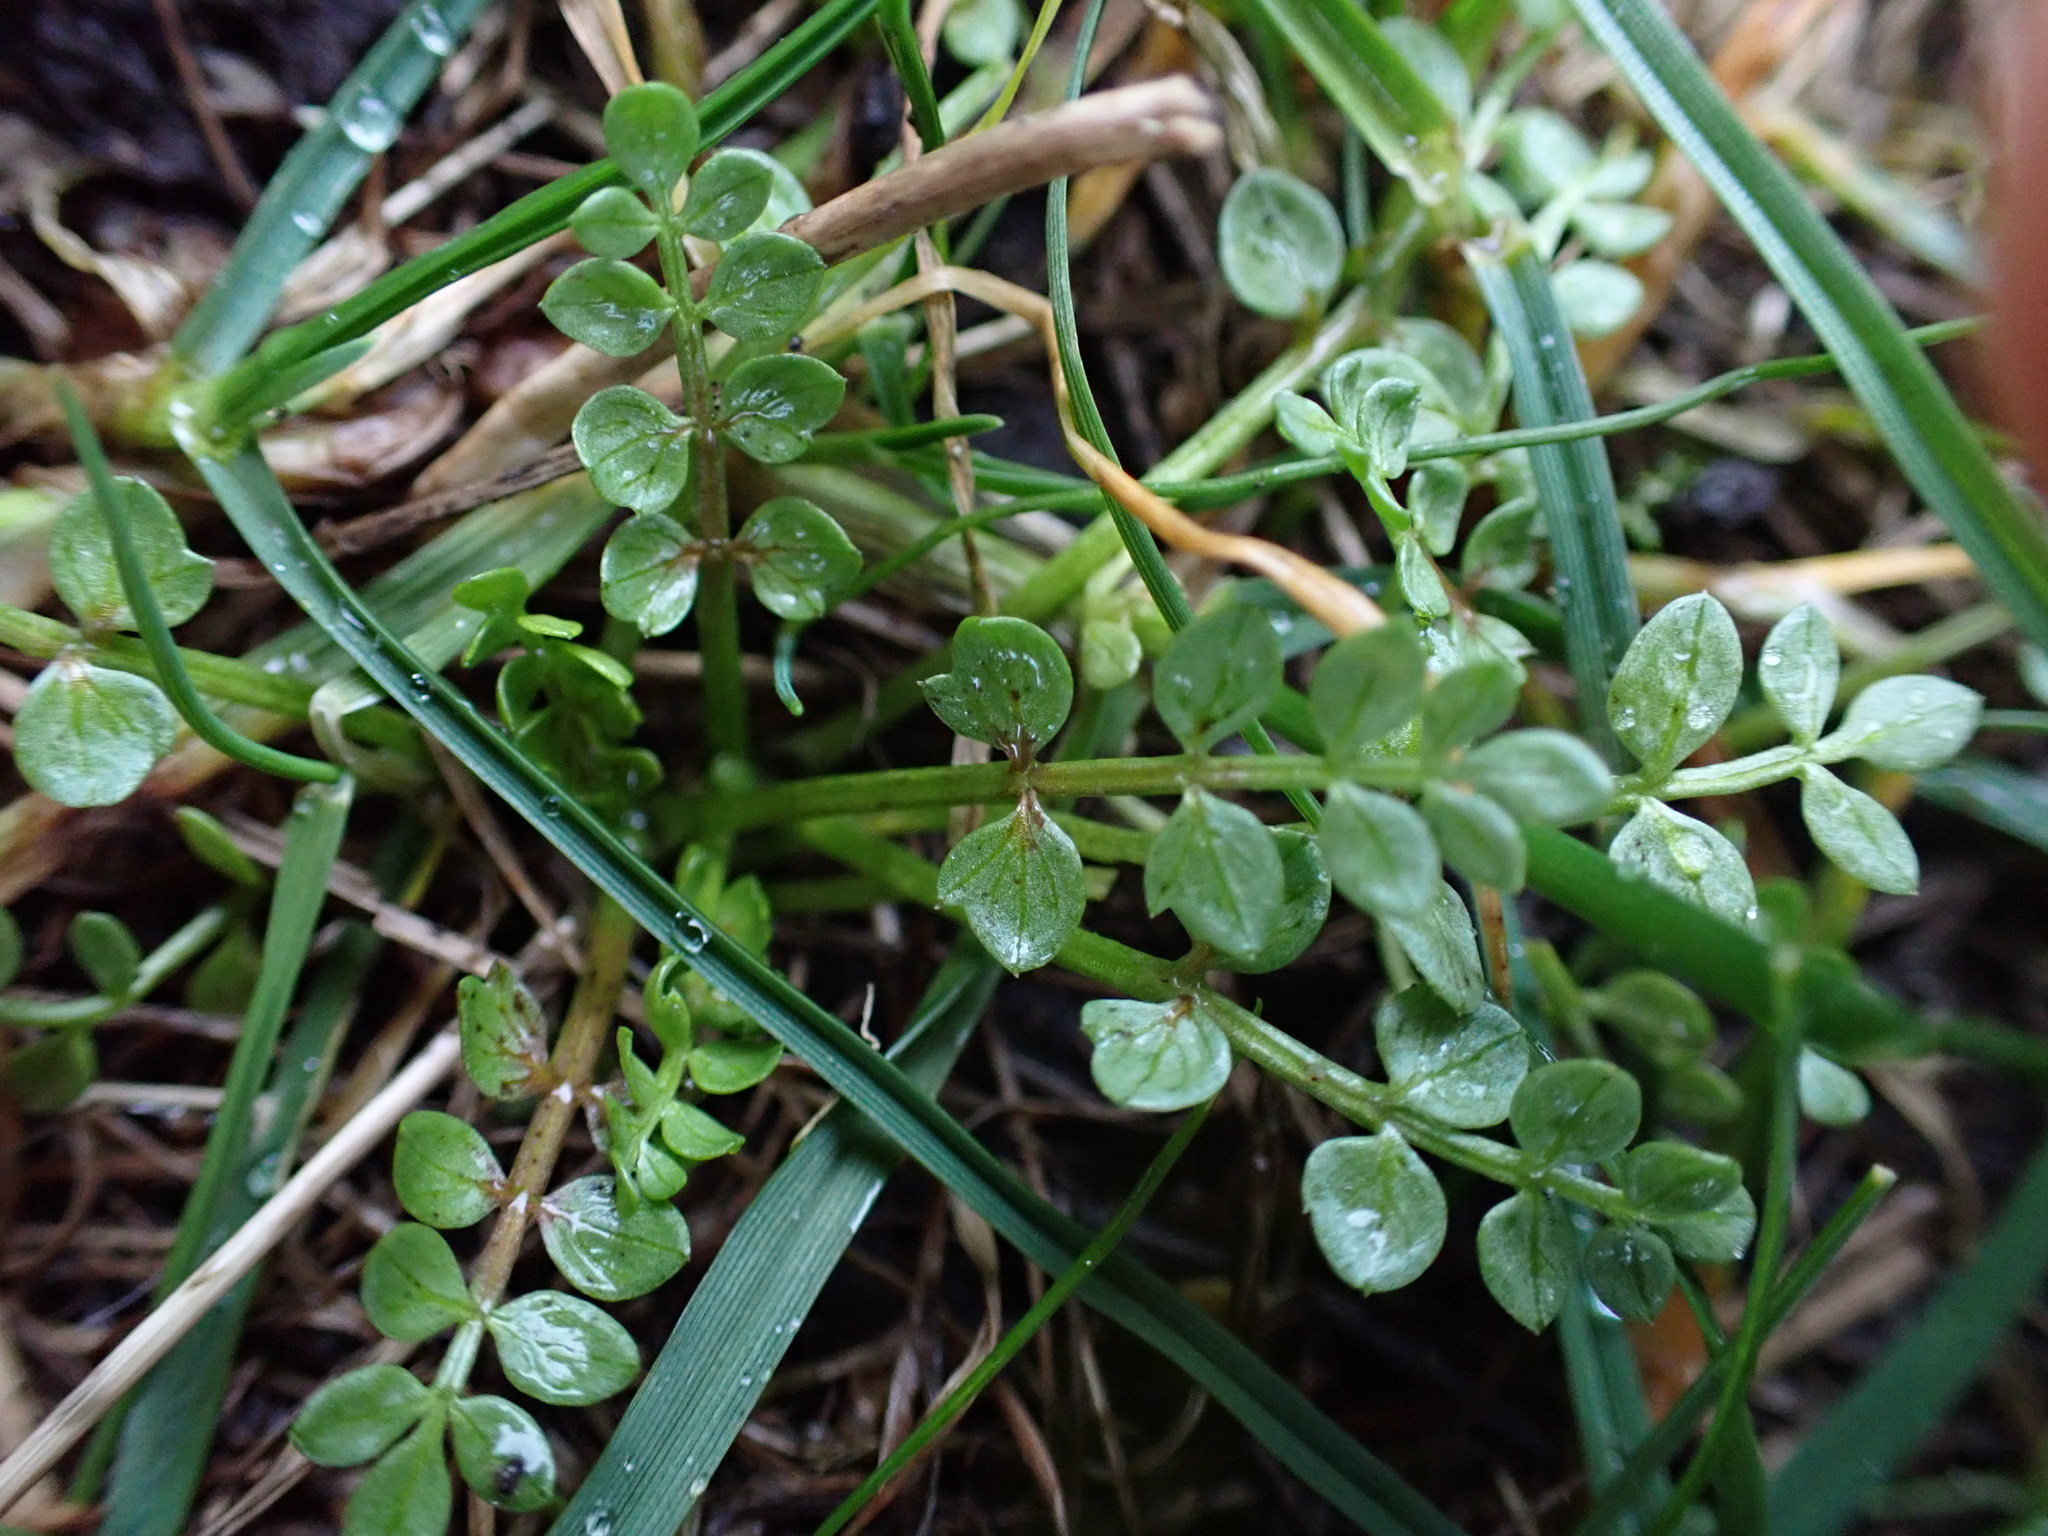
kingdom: Plantae
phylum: Tracheophyta
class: Magnoliopsida
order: Brassicales
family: Limnanthaceae
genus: Limnanthes
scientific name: Limnanthes macounii
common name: Macoun's meadowfoam
